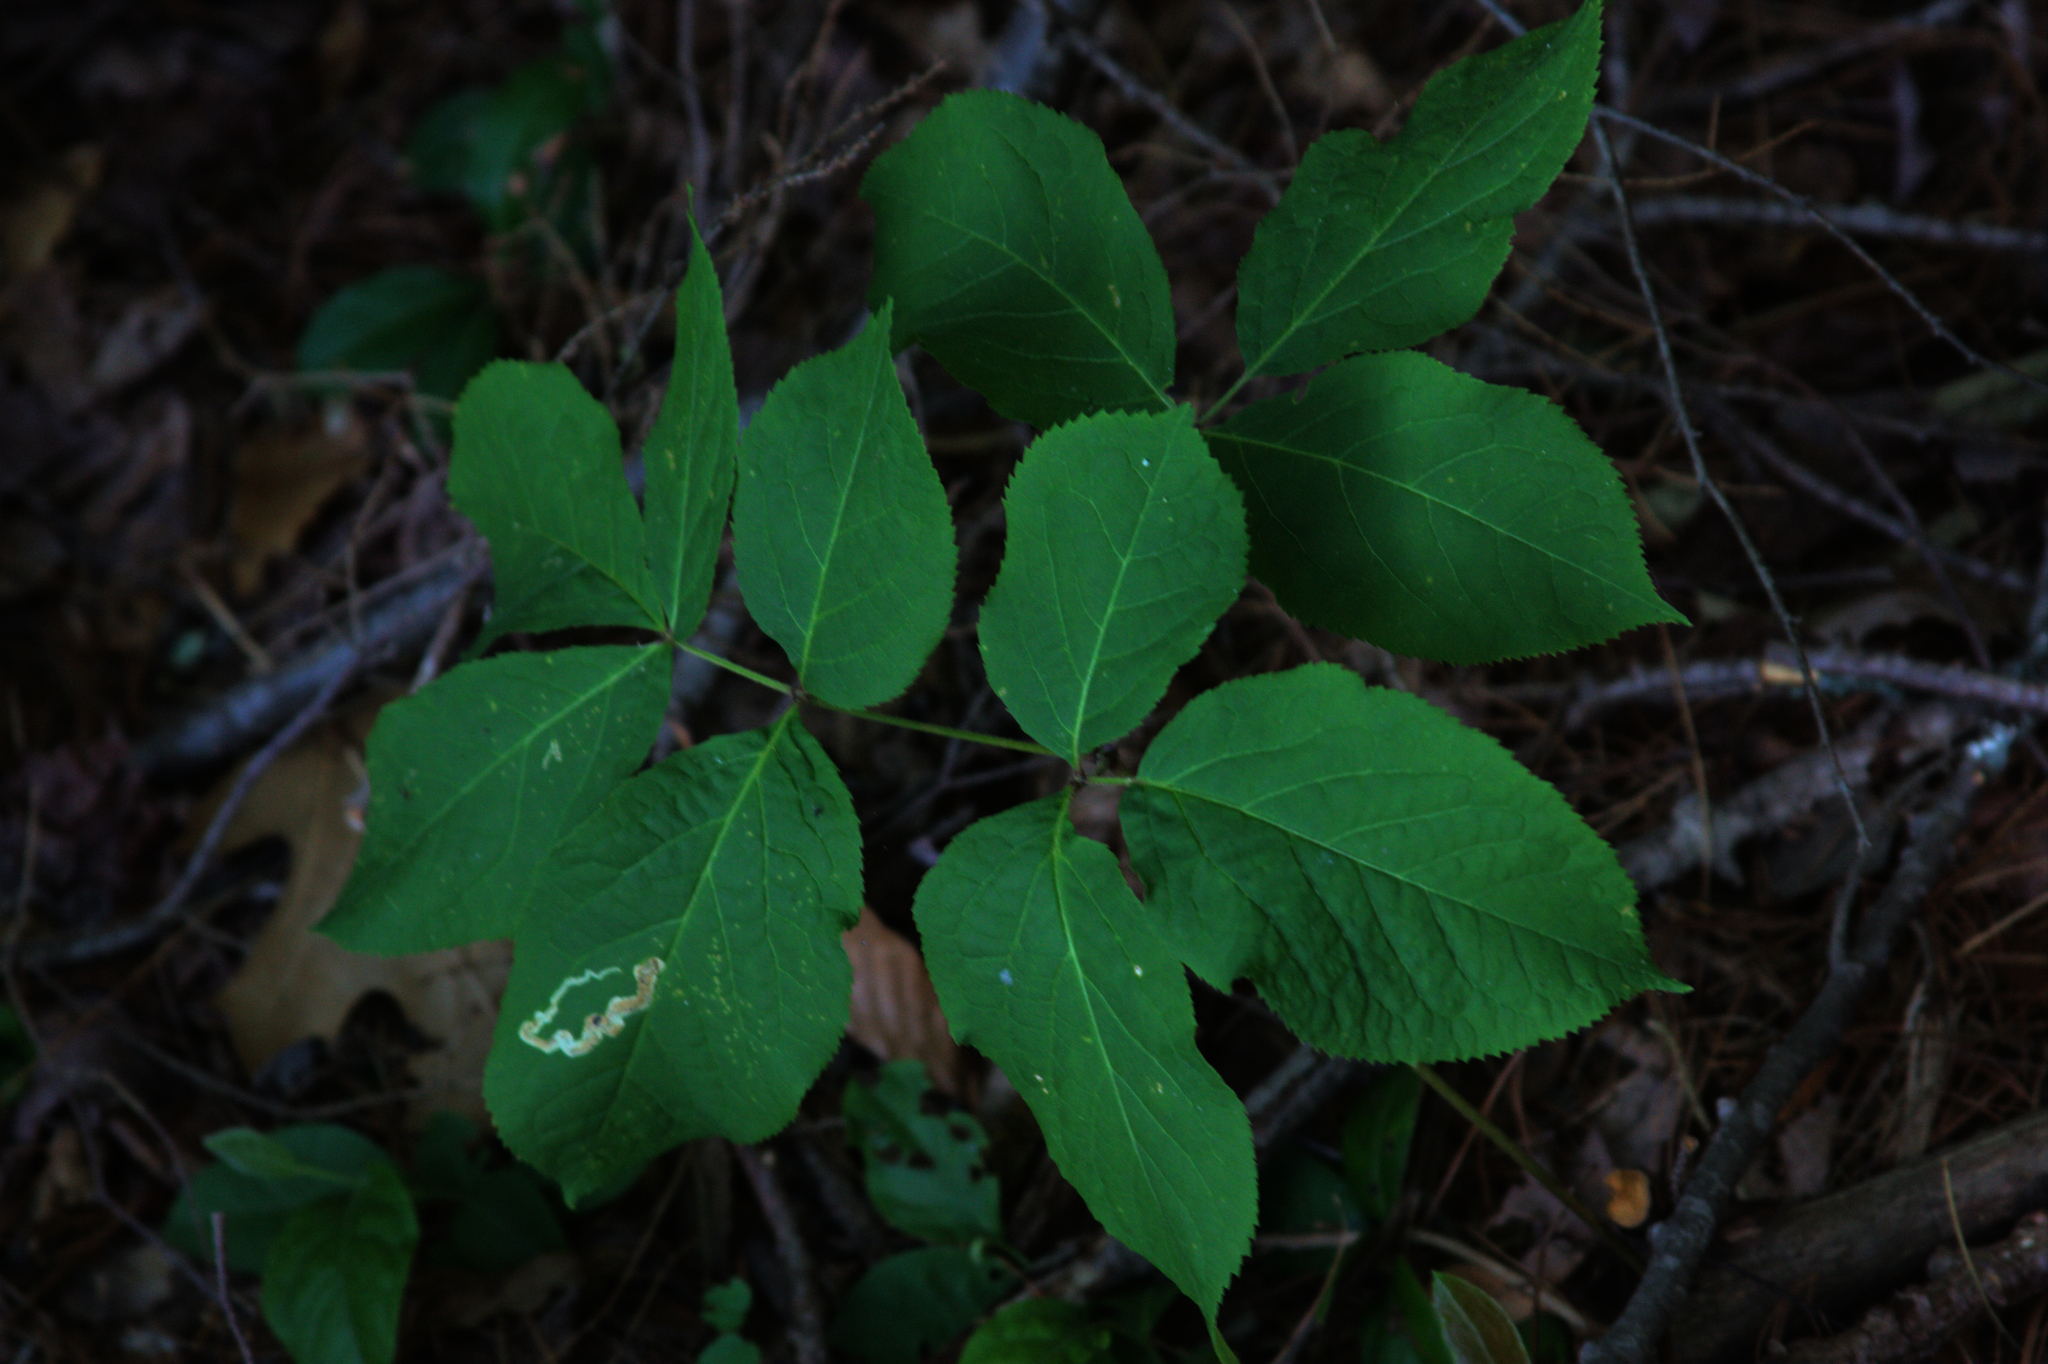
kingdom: Plantae
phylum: Tracheophyta
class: Magnoliopsida
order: Apiales
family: Araliaceae
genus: Aralia
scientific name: Aralia nudicaulis
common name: Wild sarsaparilla
